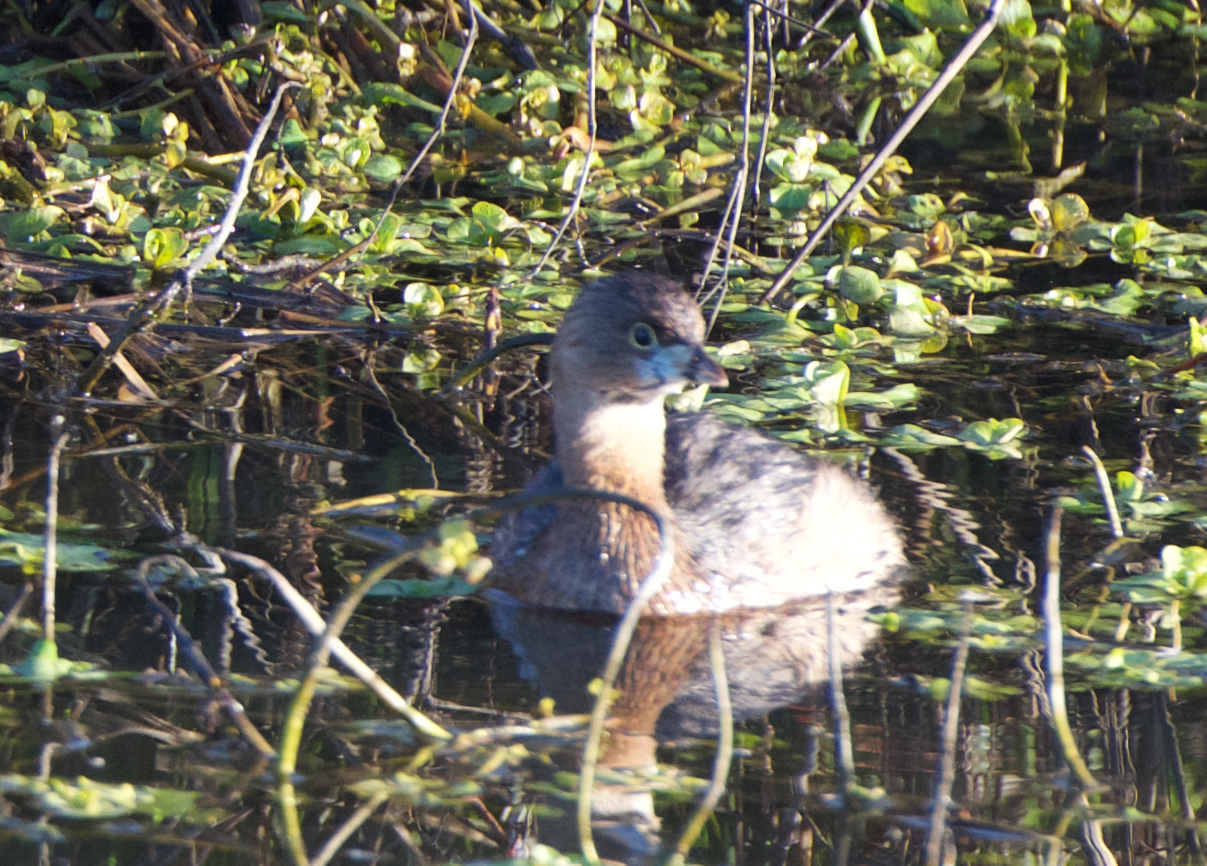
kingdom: Animalia
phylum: Chordata
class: Aves
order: Podicipediformes
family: Podicipedidae
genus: Podilymbus
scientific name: Podilymbus podiceps
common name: Pied-billed grebe
